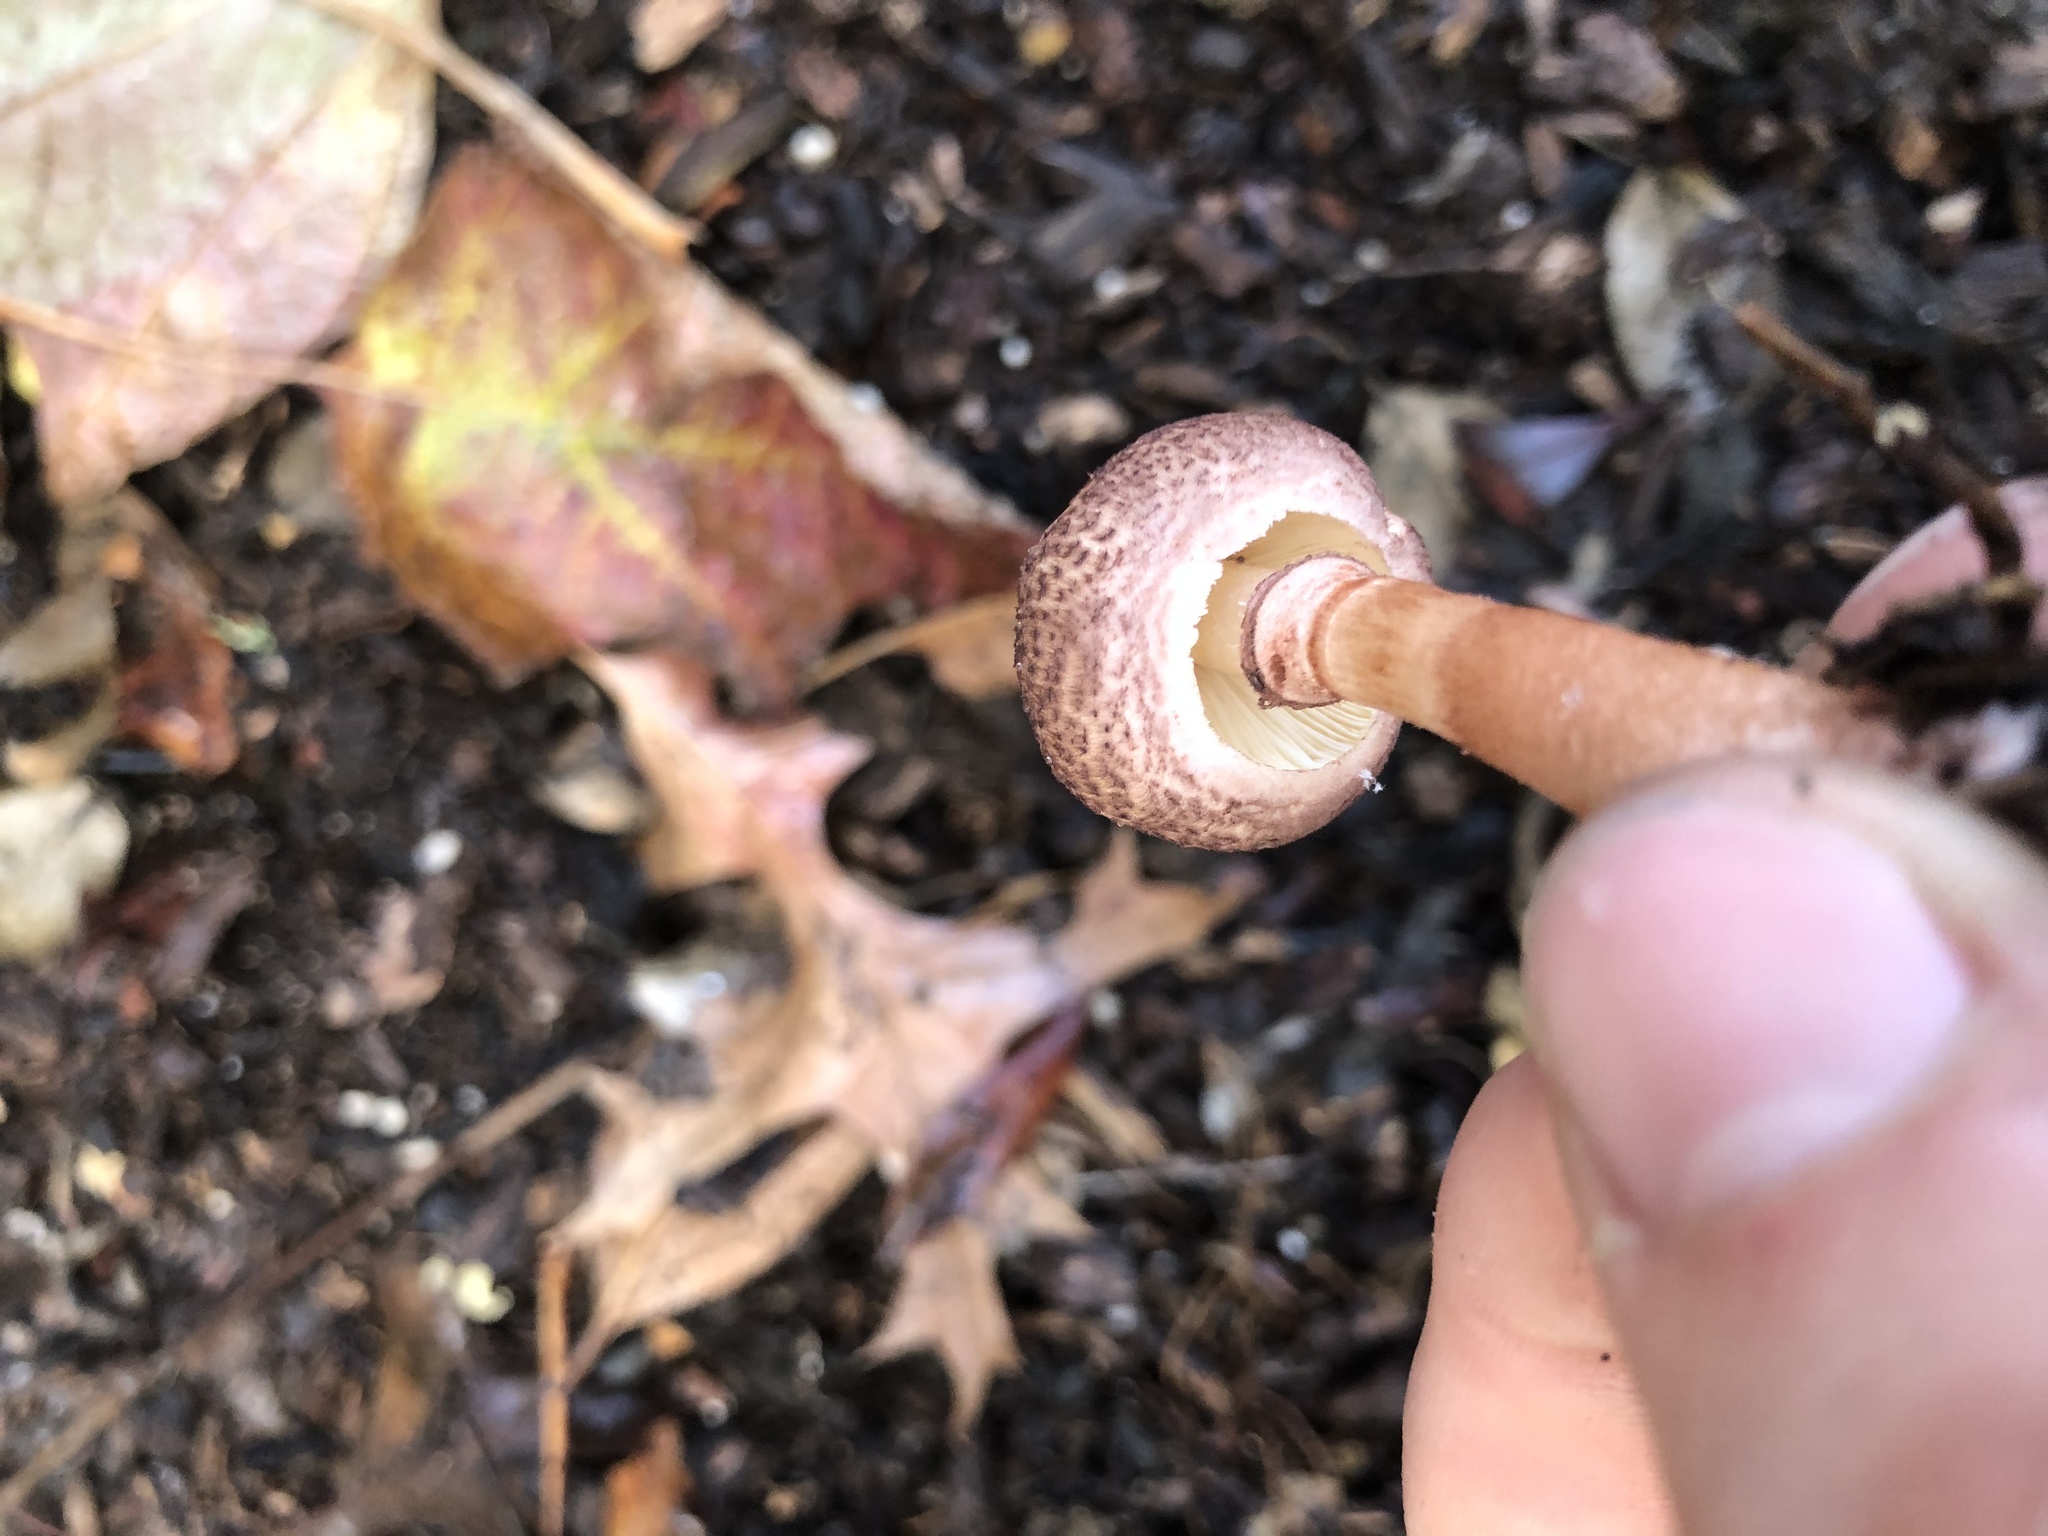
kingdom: Fungi
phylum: Basidiomycota
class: Agaricomycetes
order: Agaricales
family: Agaricaceae
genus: Lepiota
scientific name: Lepiota decorata
